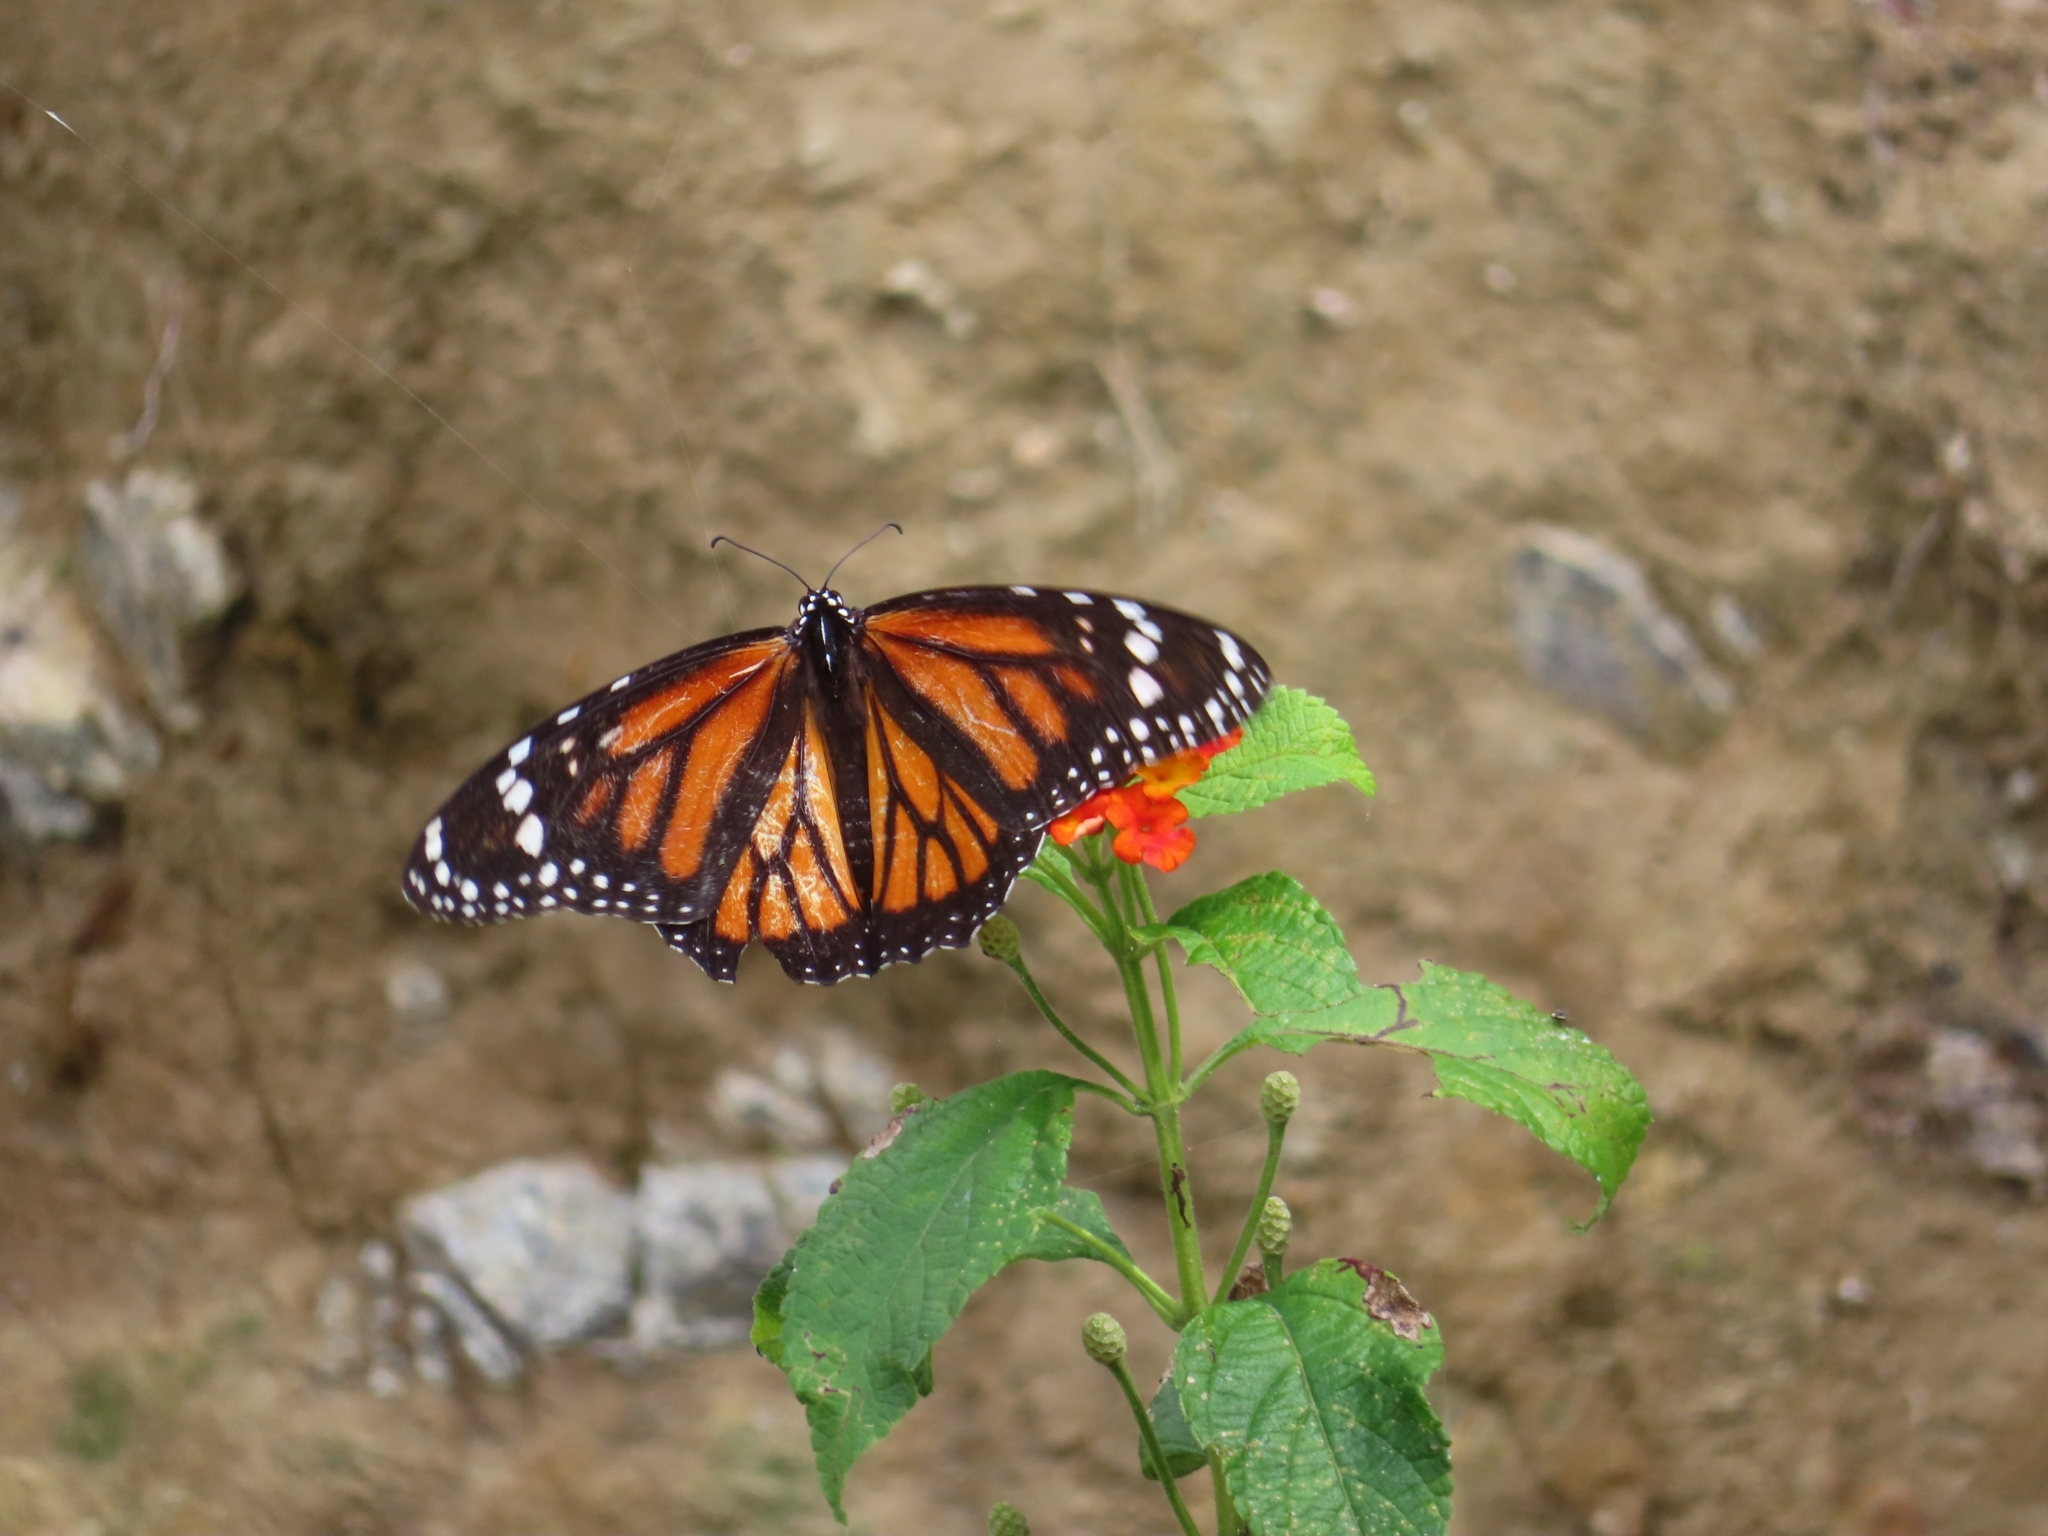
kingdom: Animalia
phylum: Arthropoda
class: Insecta
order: Lepidoptera
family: Nymphalidae
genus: Danaus
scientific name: Danaus plexippus
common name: Monarch
